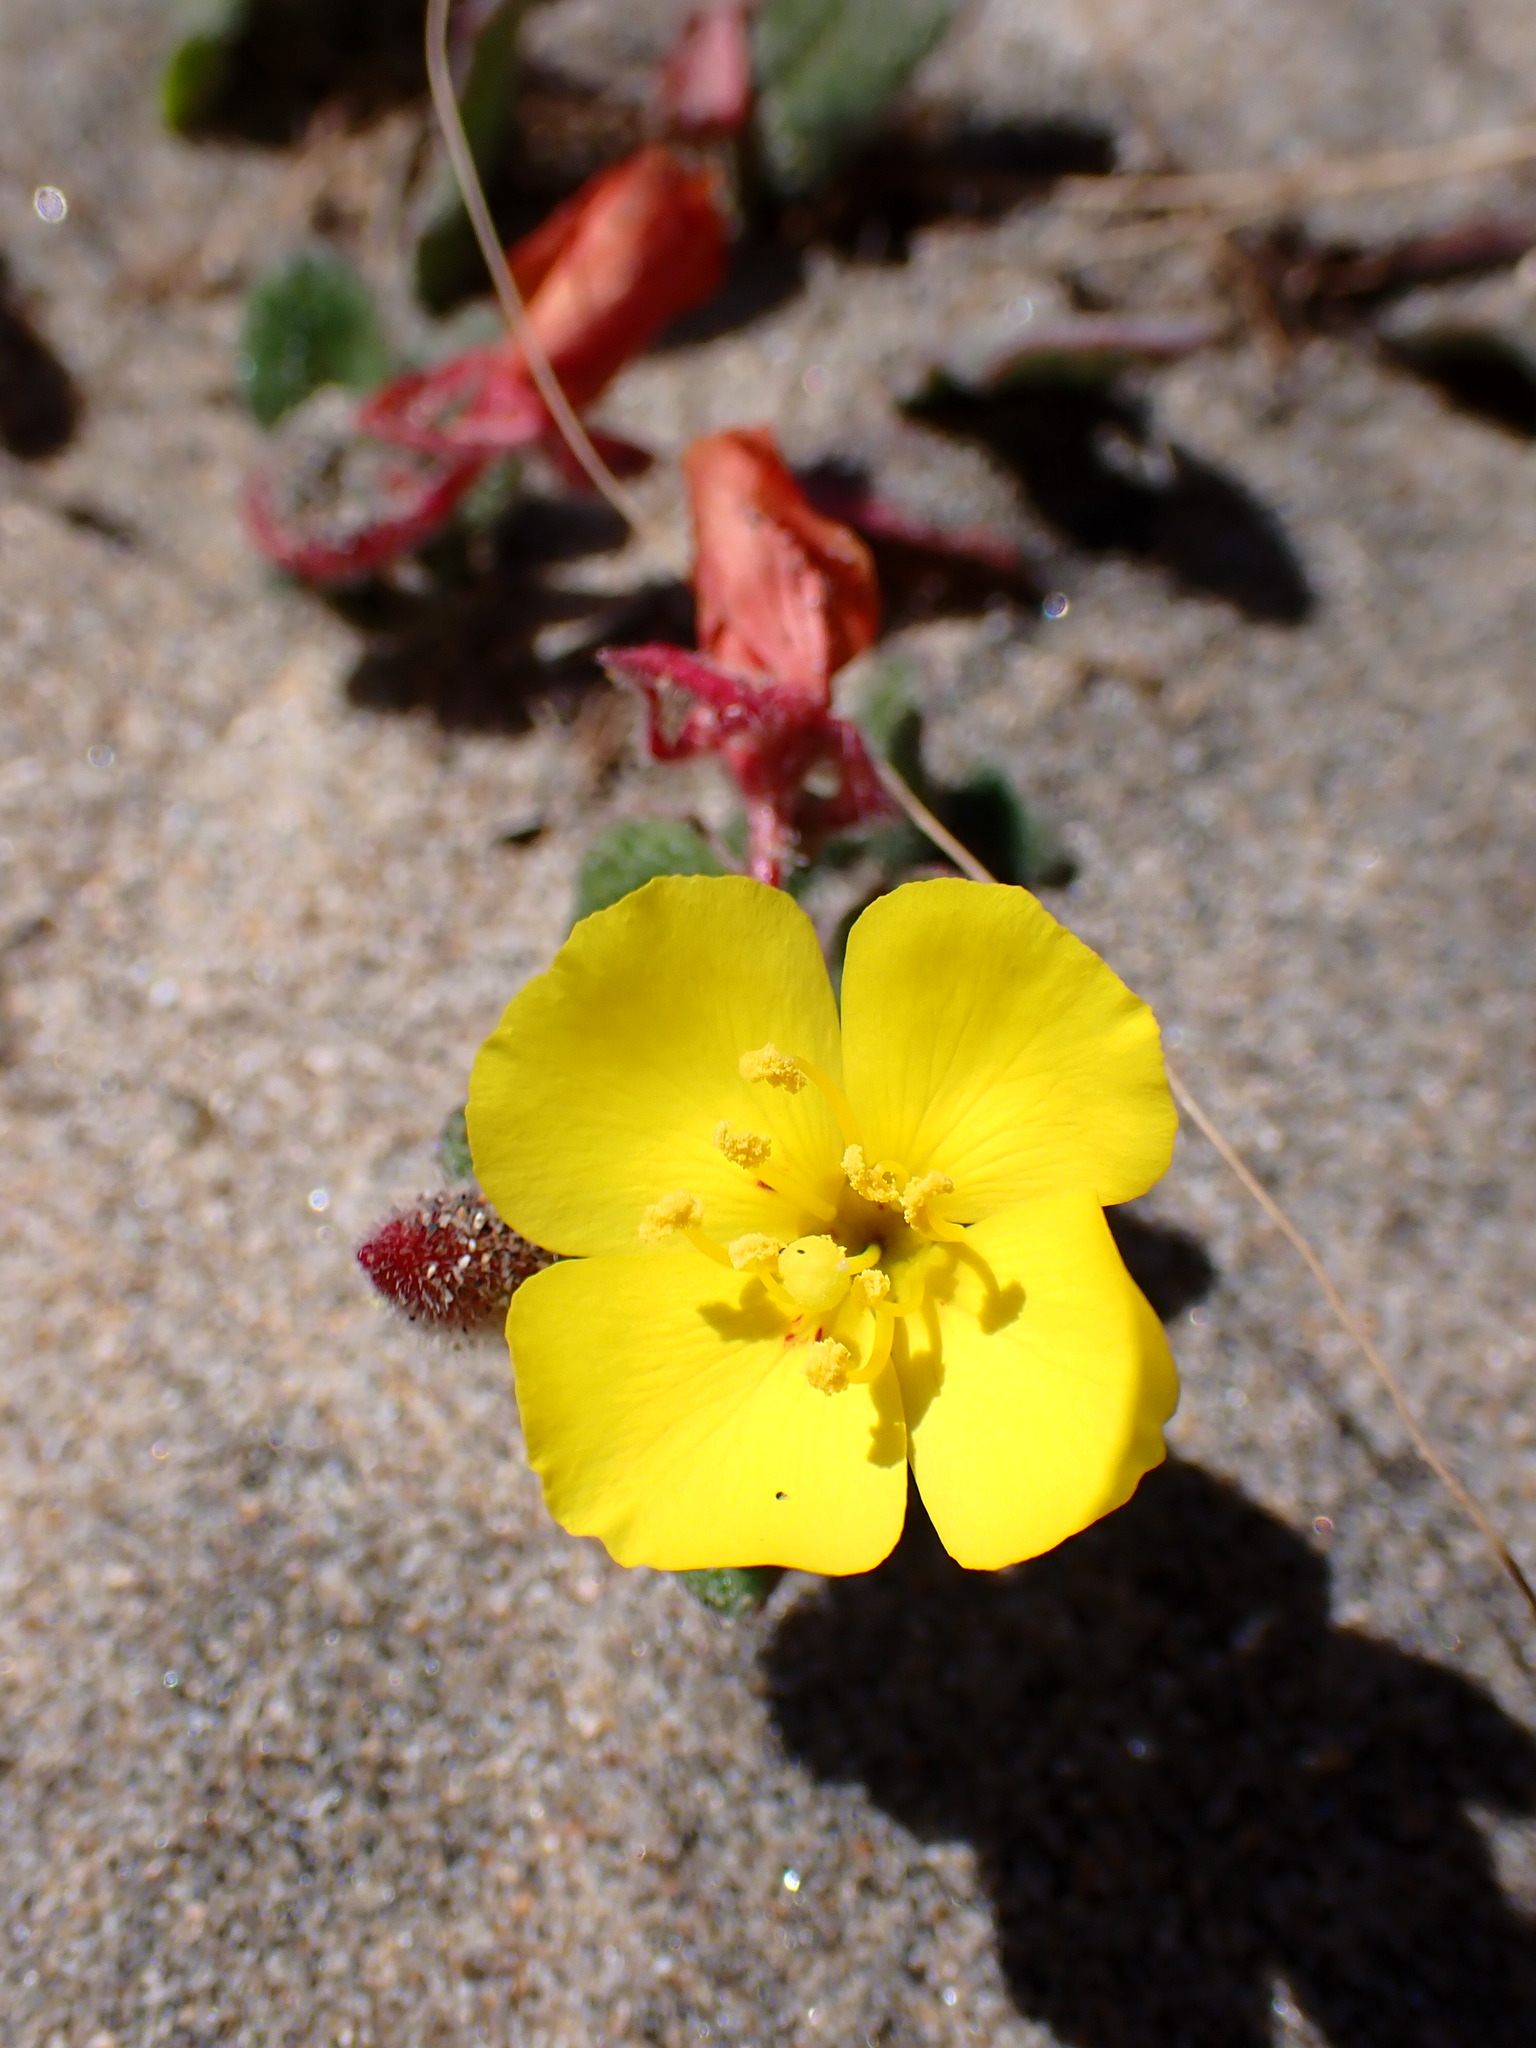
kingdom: Plantae
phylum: Tracheophyta
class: Magnoliopsida
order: Myrtales
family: Onagraceae
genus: Camissoniopsis
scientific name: Camissoniopsis cheiranthifolia
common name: Beach suncup
